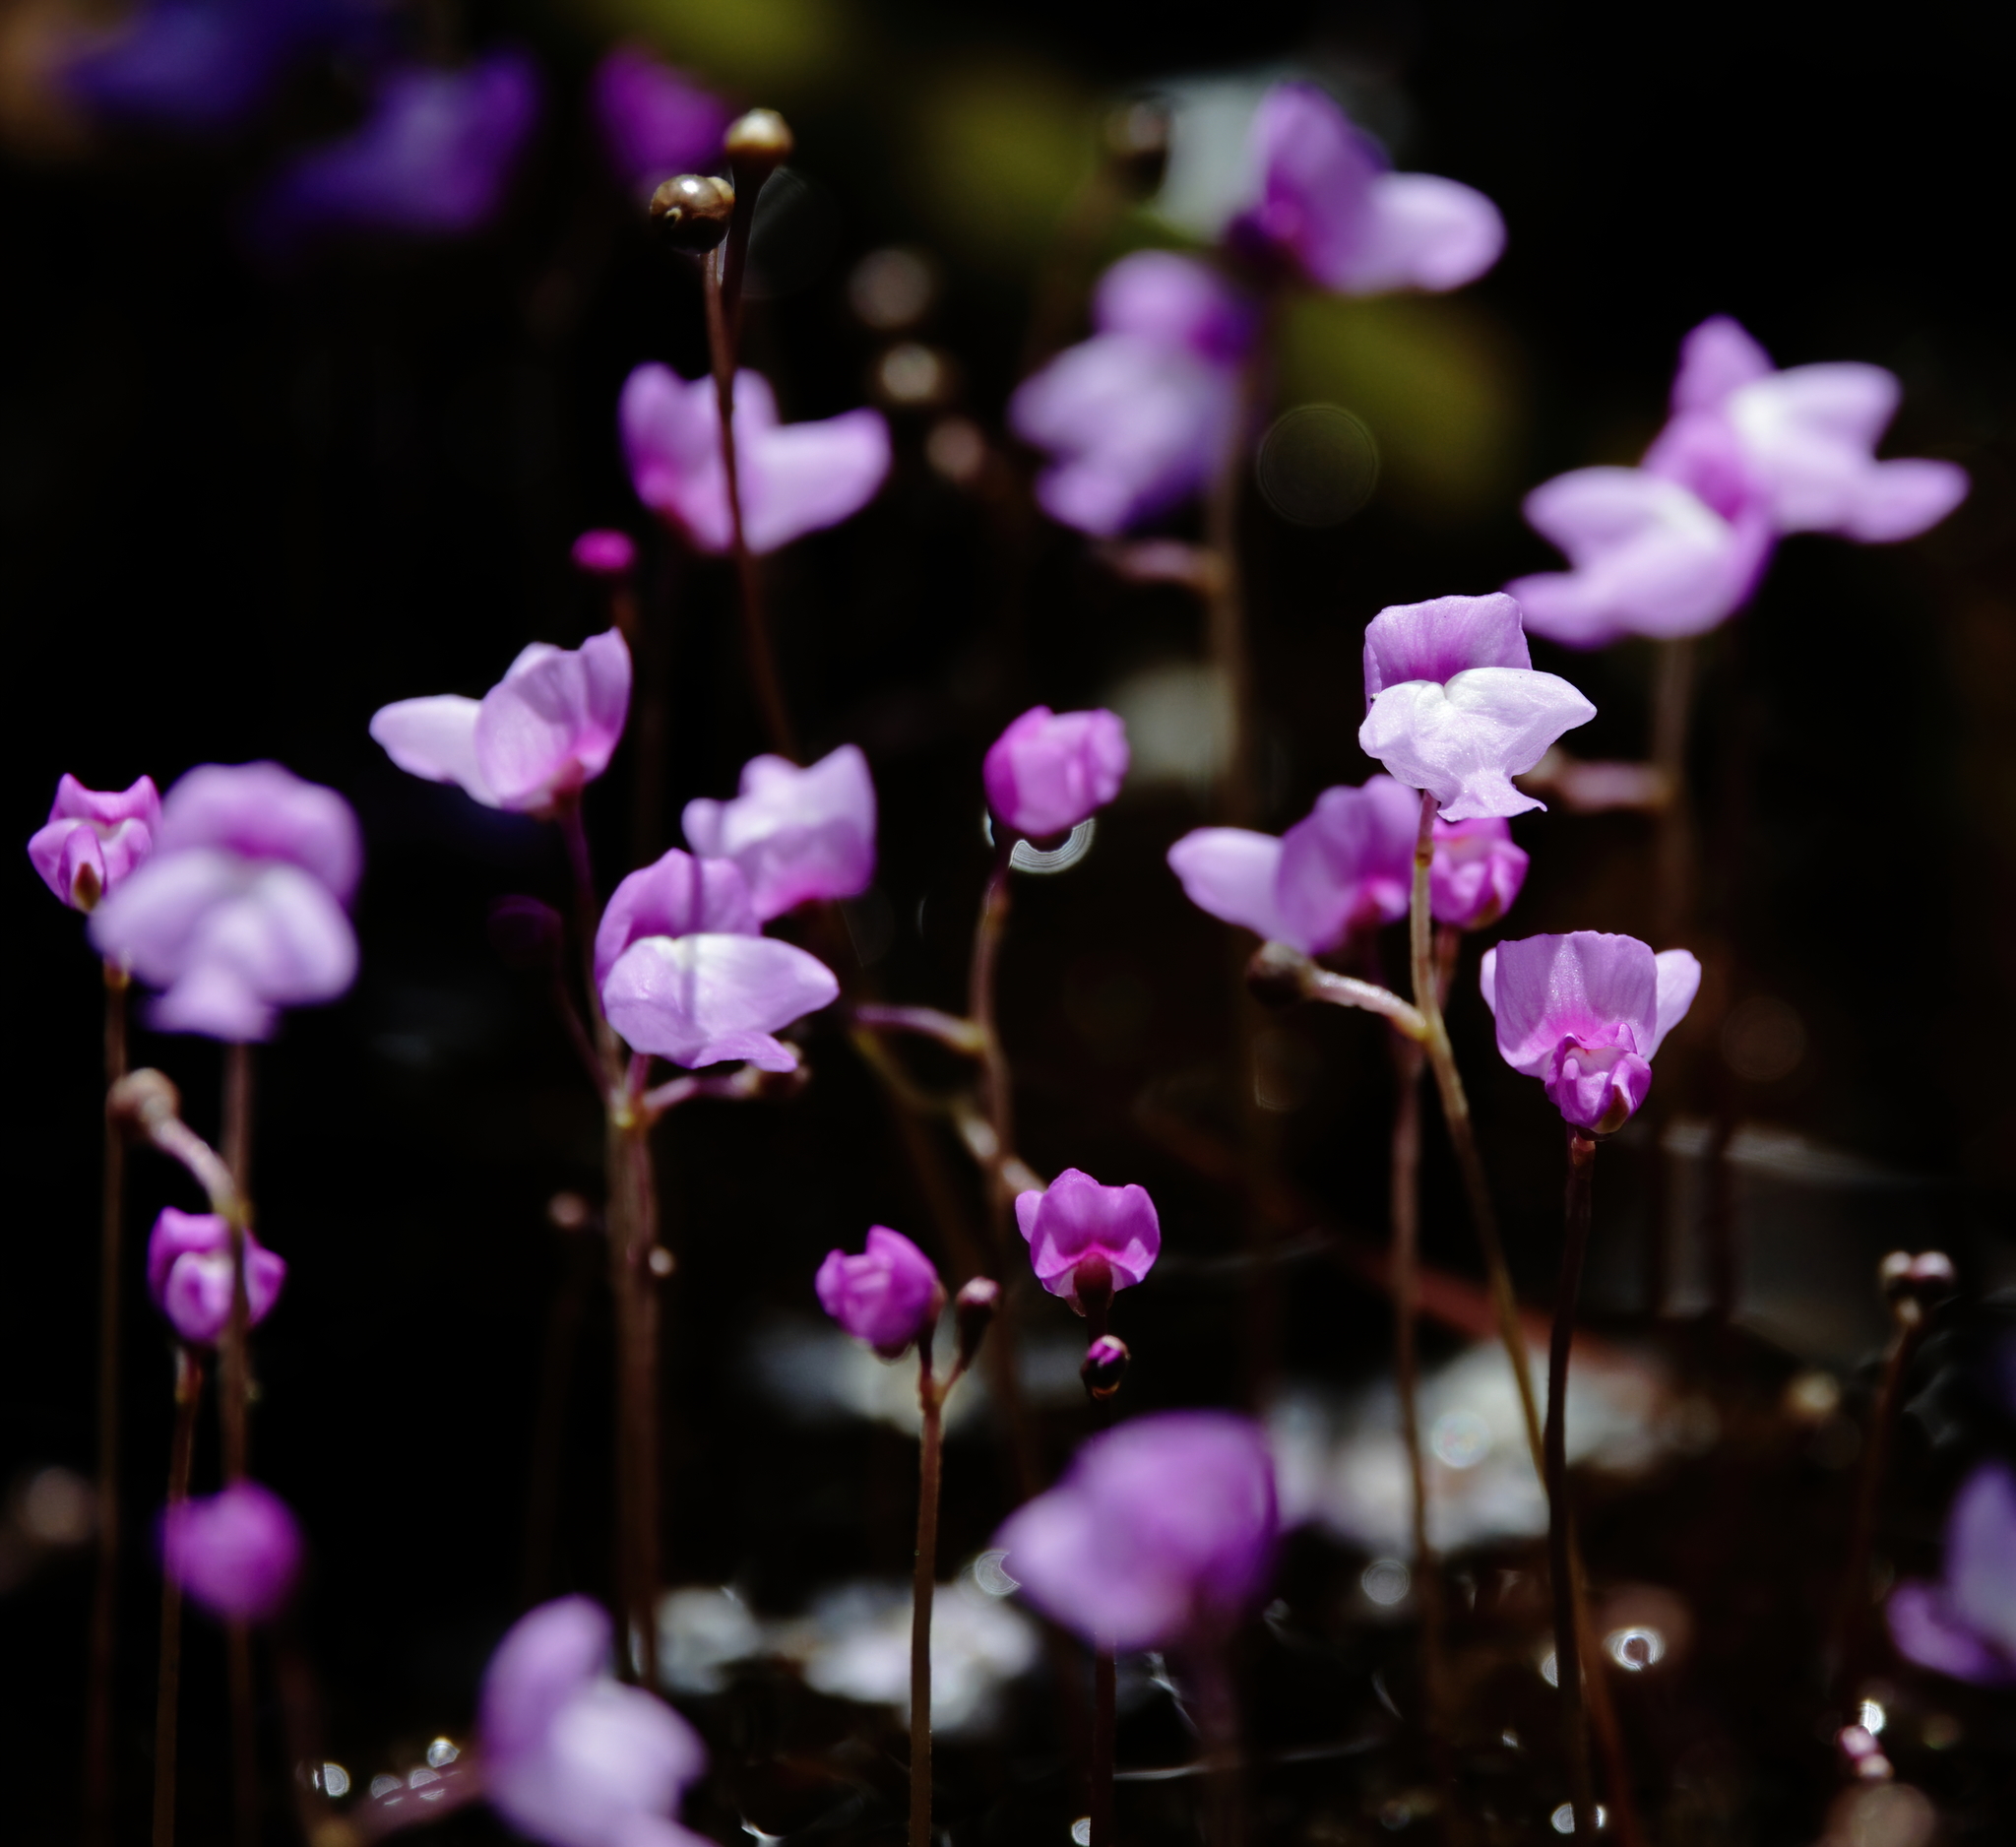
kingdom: Plantae
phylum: Tracheophyta
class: Magnoliopsida
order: Lamiales
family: Lentibulariaceae
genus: Utricularia
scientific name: Utricularia purpurea
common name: Eastern purple bladderwort
